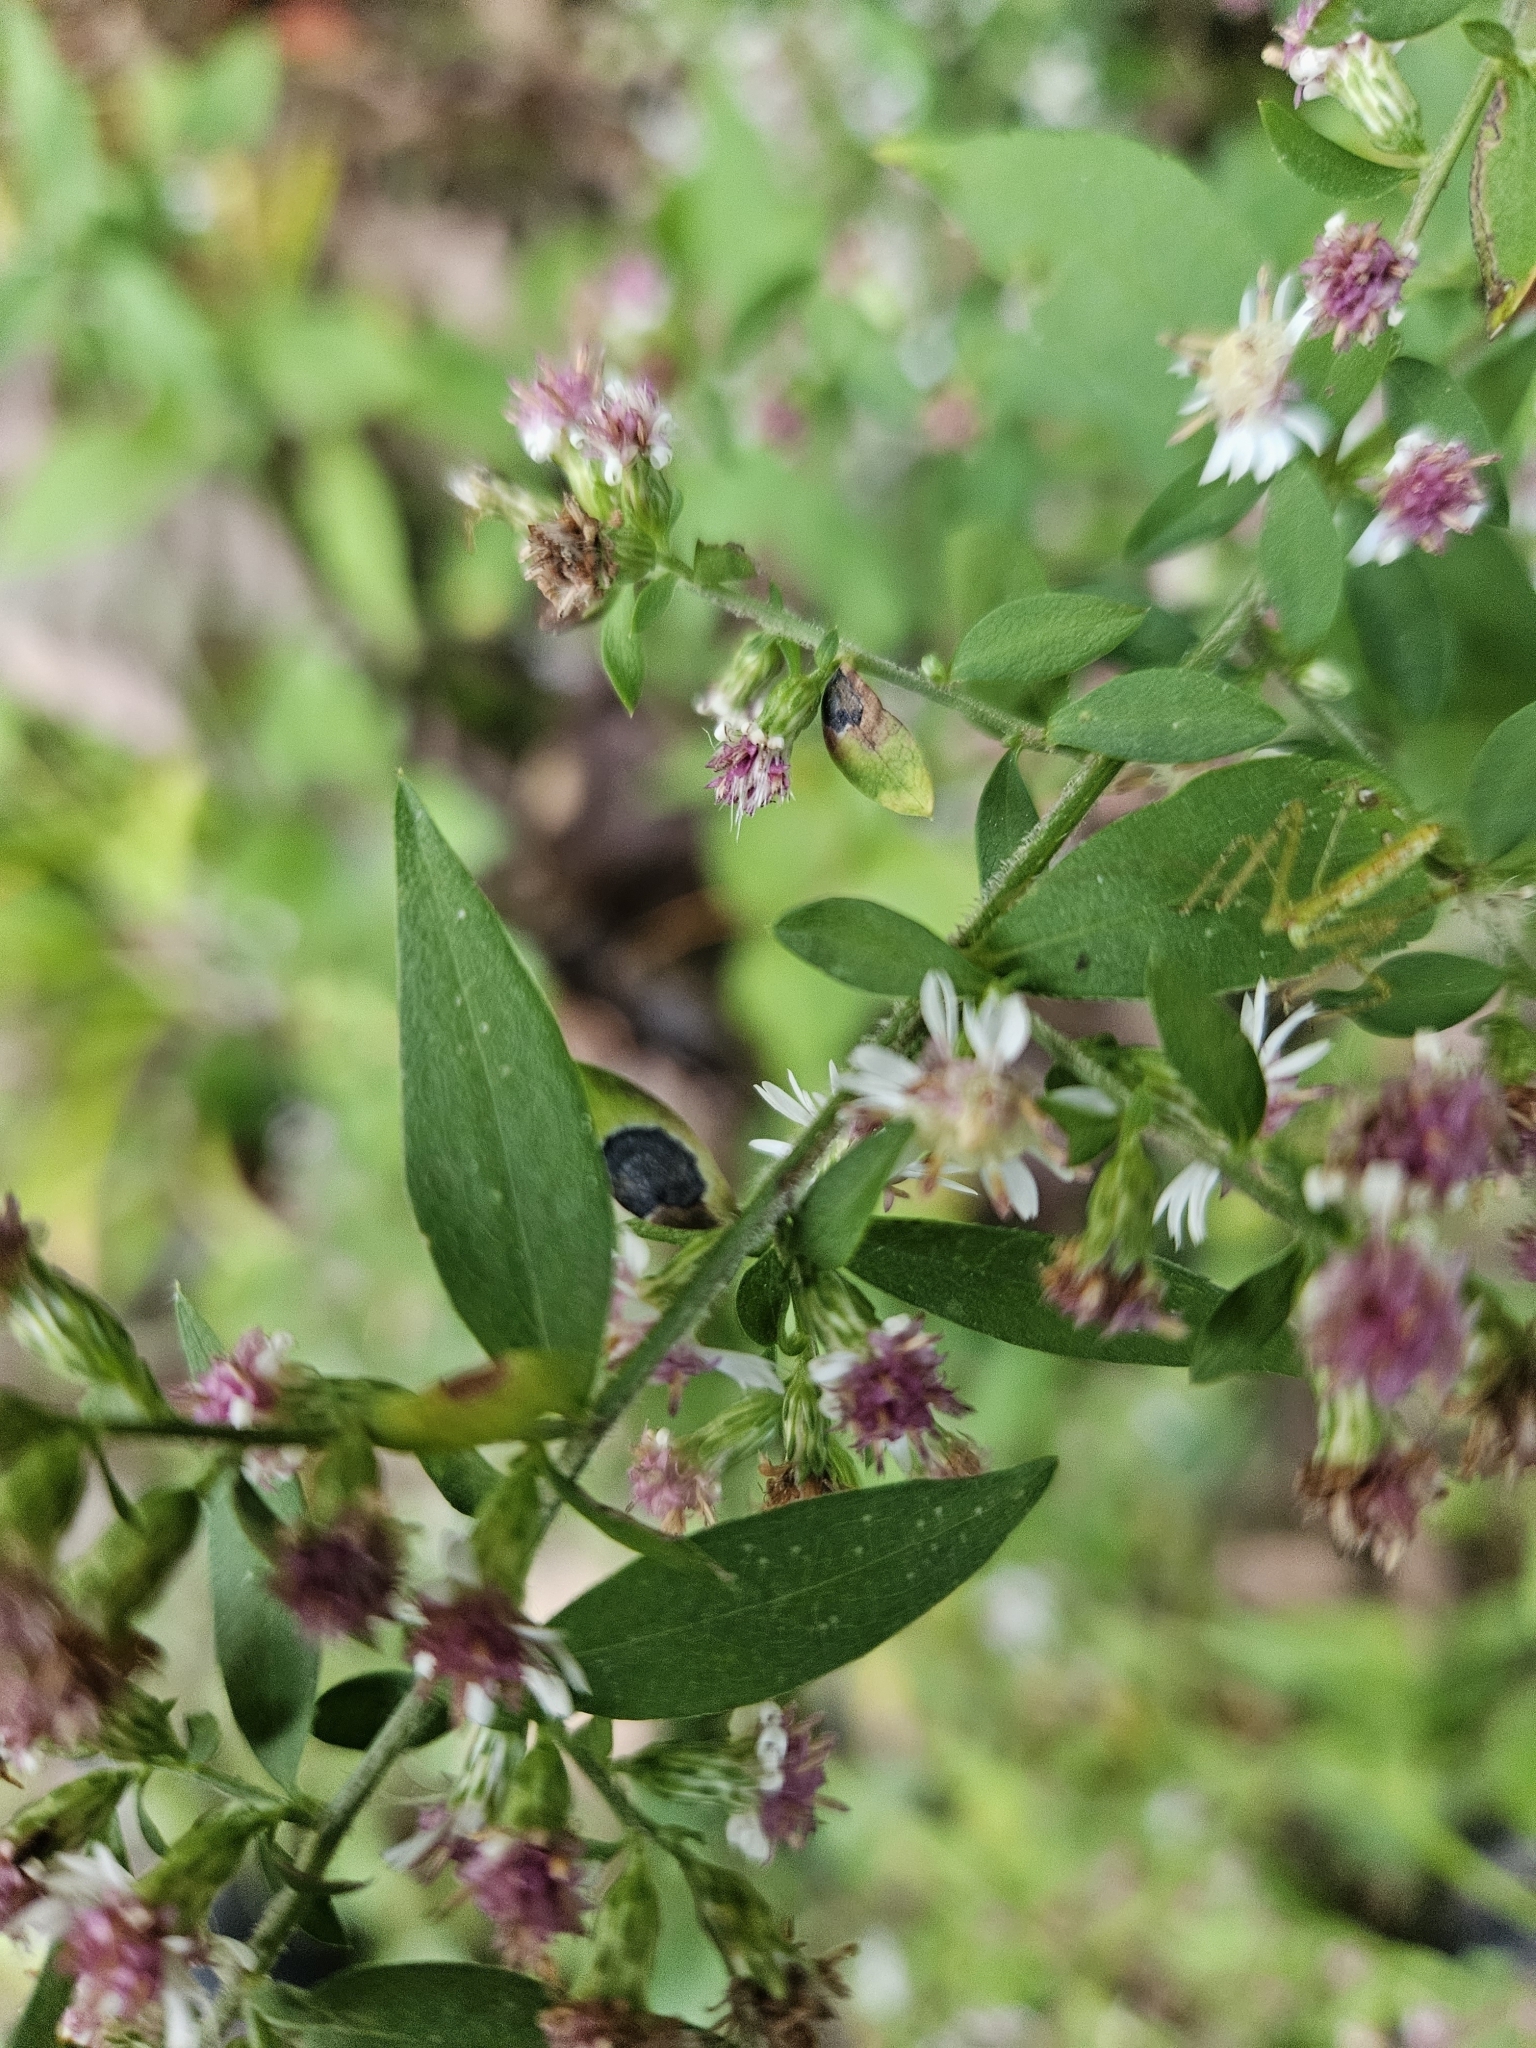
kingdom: Plantae
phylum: Tracheophyta
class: Magnoliopsida
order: Asterales
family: Asteraceae
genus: Symphyotrichum
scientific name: Symphyotrichum lateriflorum
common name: Calico aster
